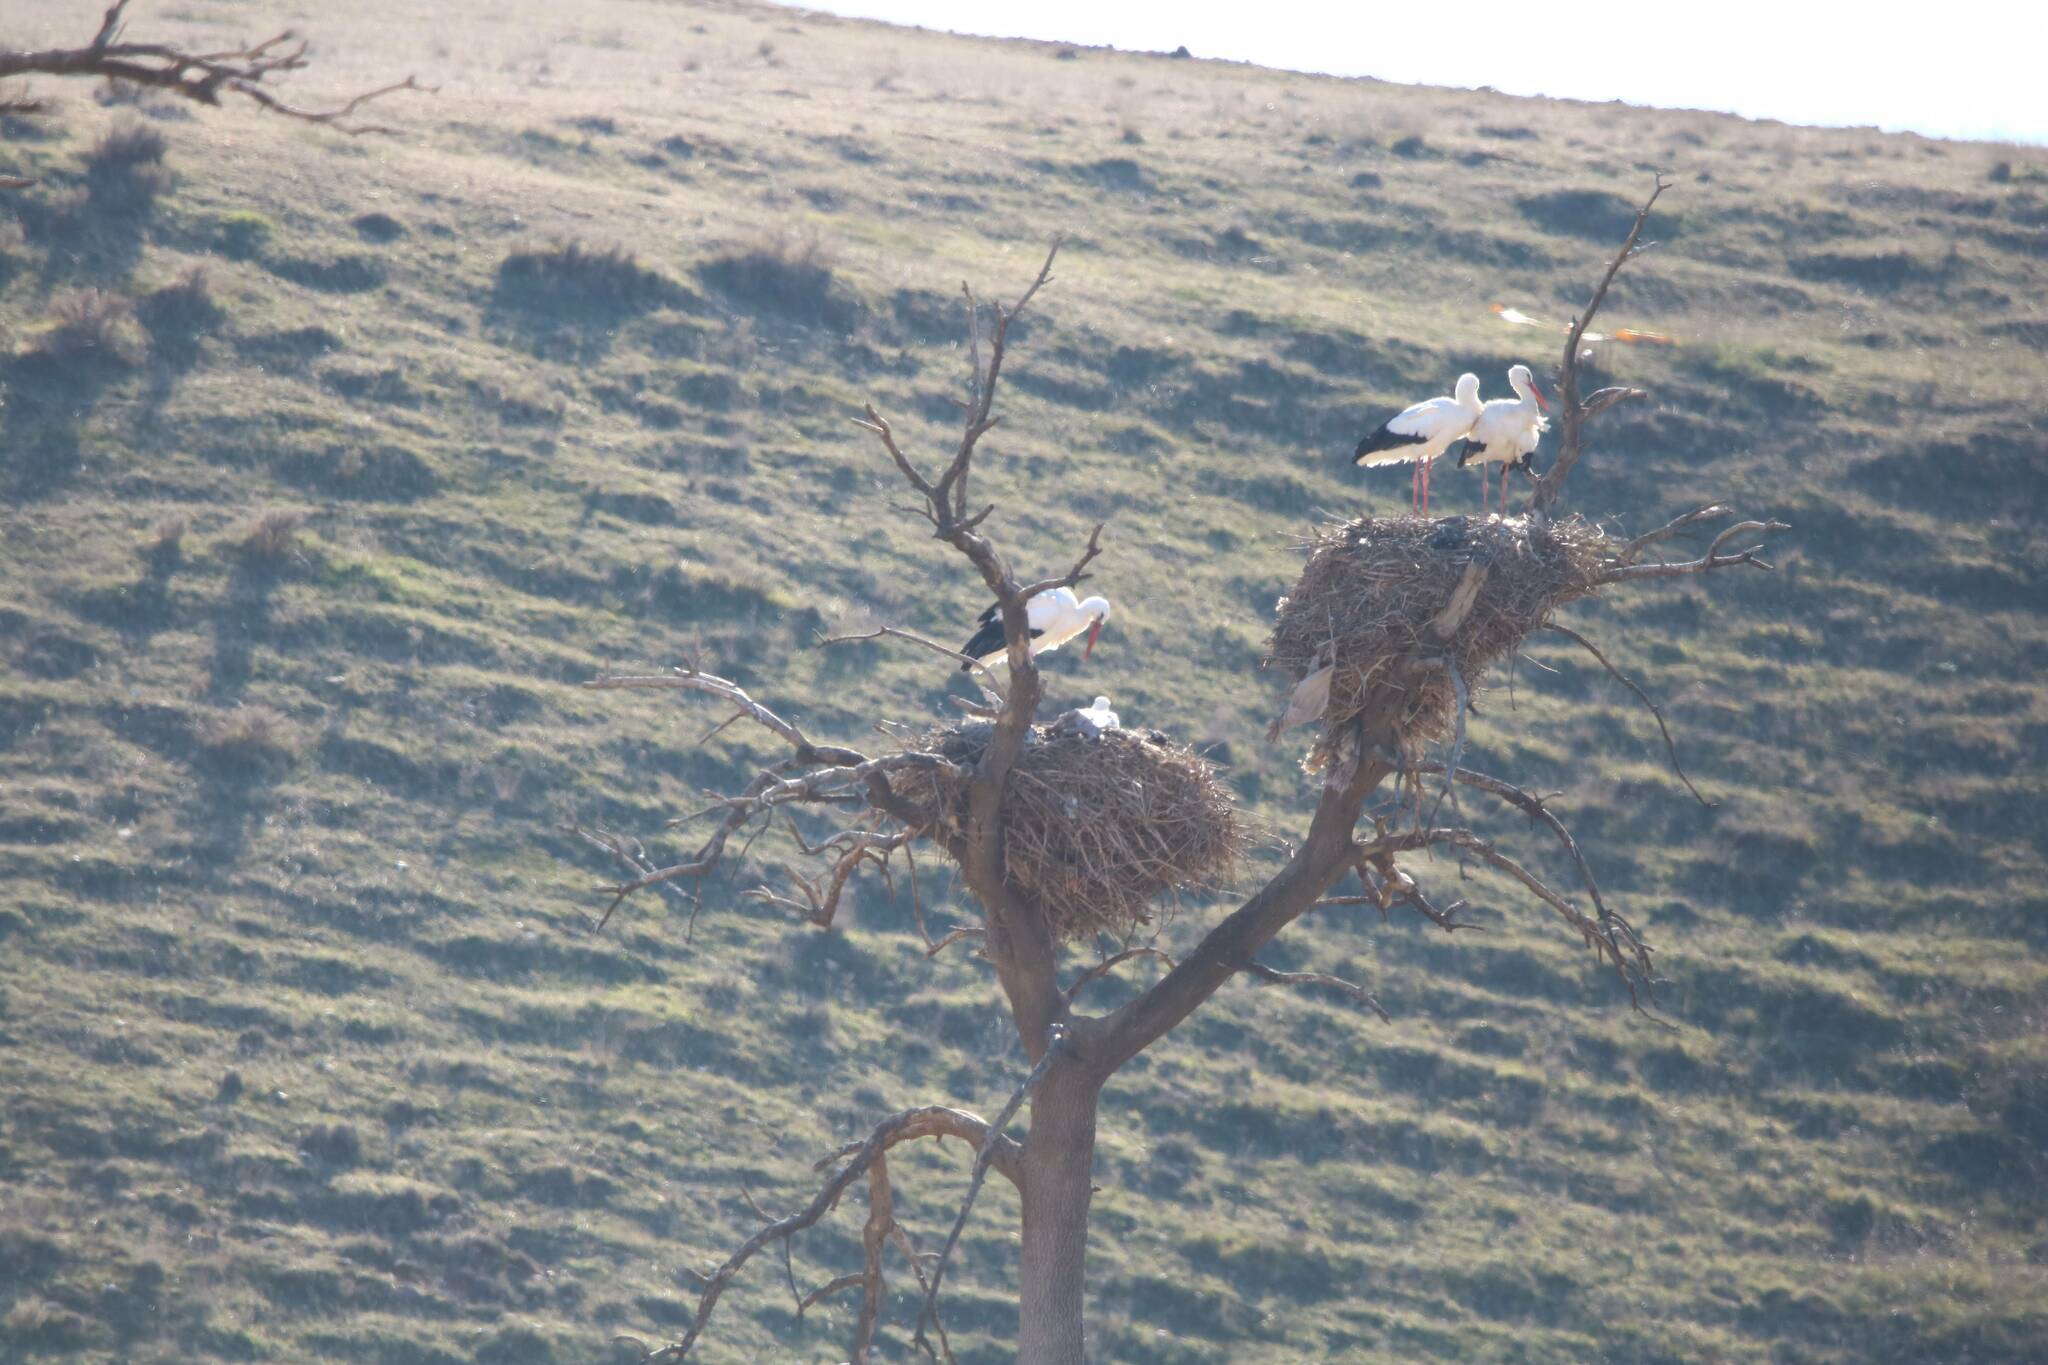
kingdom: Animalia
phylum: Chordata
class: Aves
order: Ciconiiformes
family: Ciconiidae
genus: Ciconia
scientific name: Ciconia ciconia
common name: White stork
